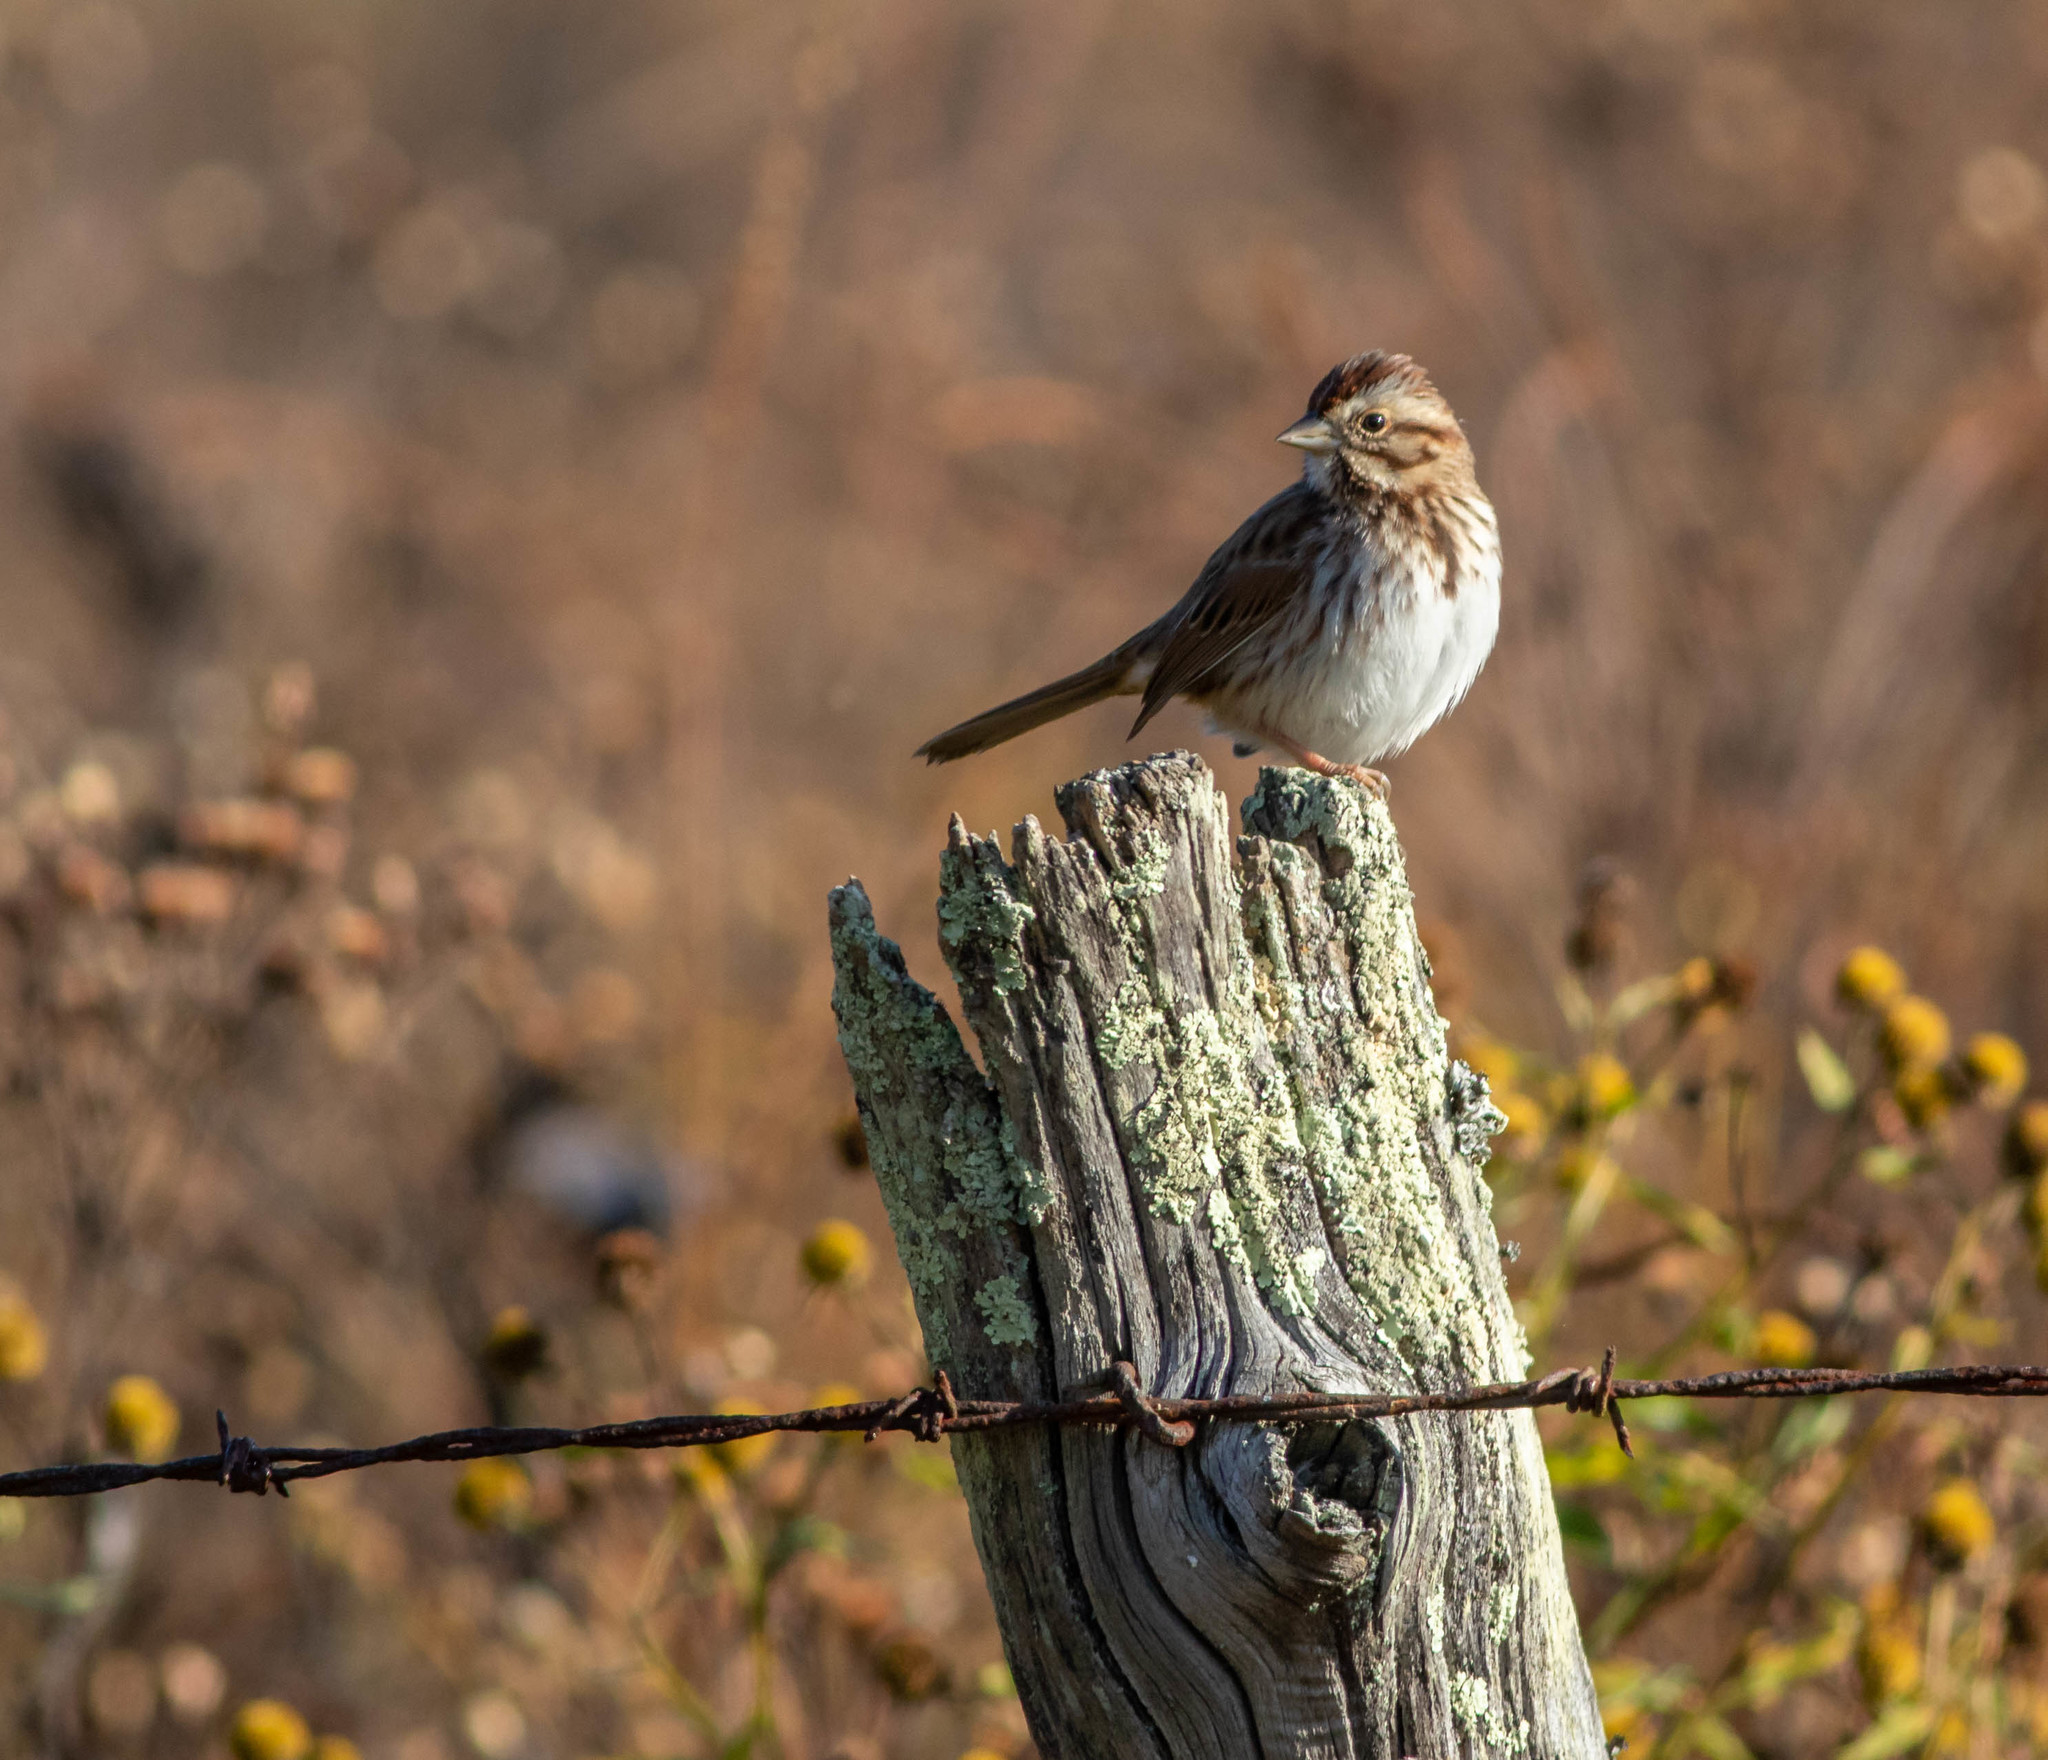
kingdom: Animalia
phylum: Chordata
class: Aves
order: Passeriformes
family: Passerellidae
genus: Melospiza
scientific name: Melospiza melodia
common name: Song sparrow
